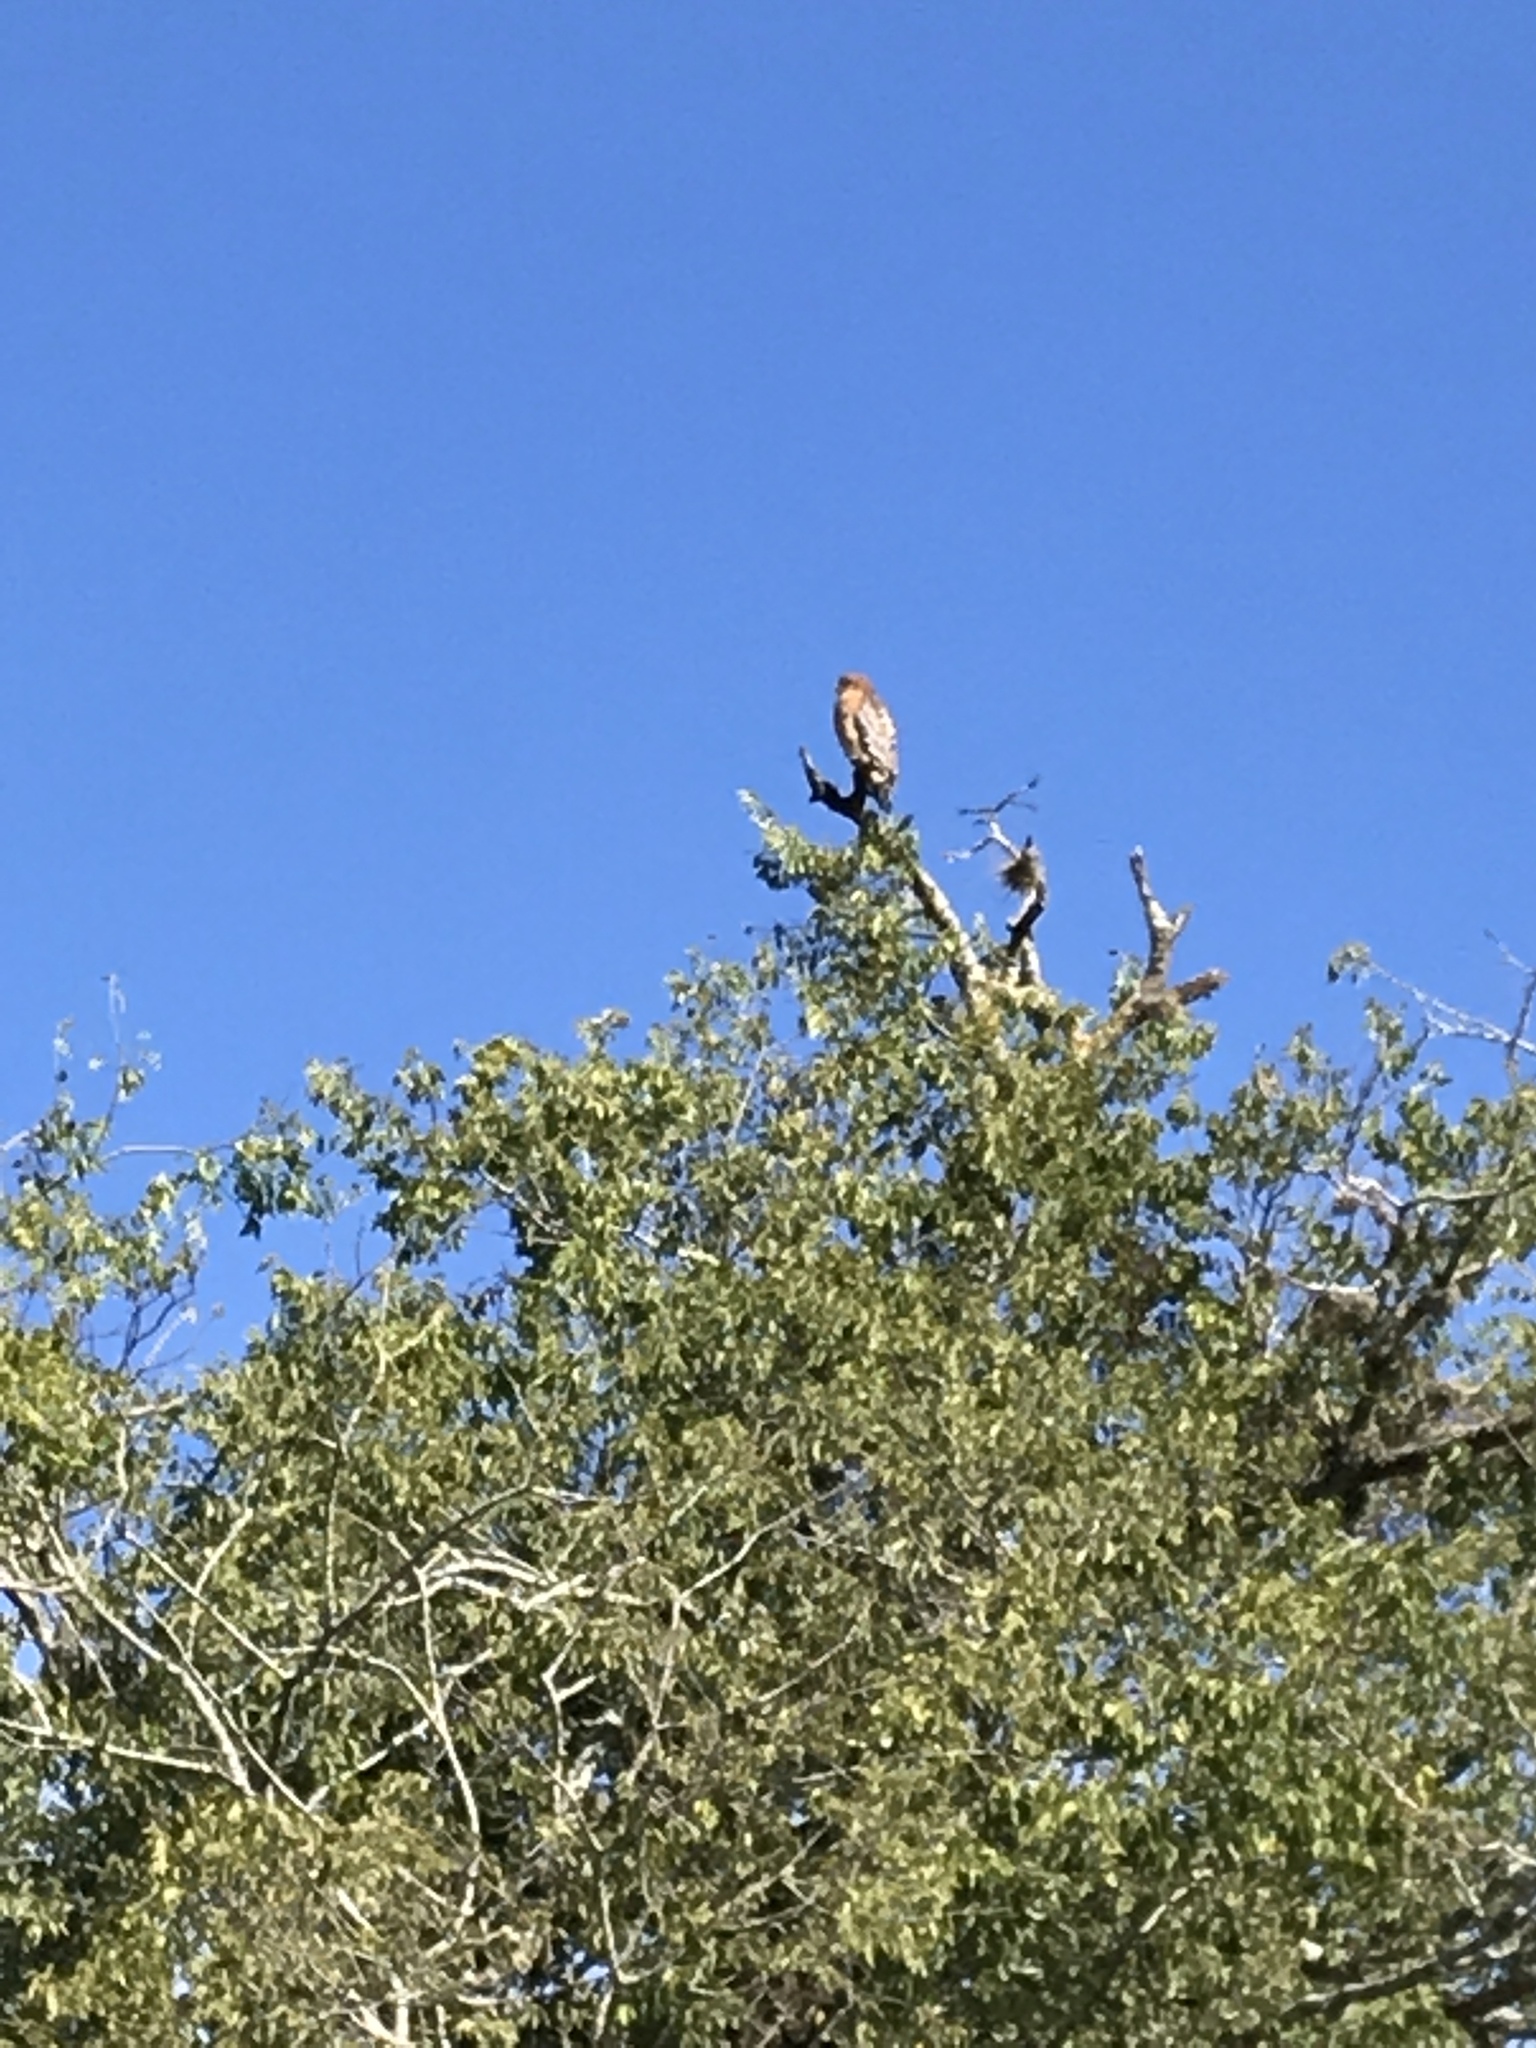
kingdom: Animalia
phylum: Chordata
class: Aves
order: Accipitriformes
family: Accipitridae
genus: Buteo
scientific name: Buteo lineatus
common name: Red-shouldered hawk
